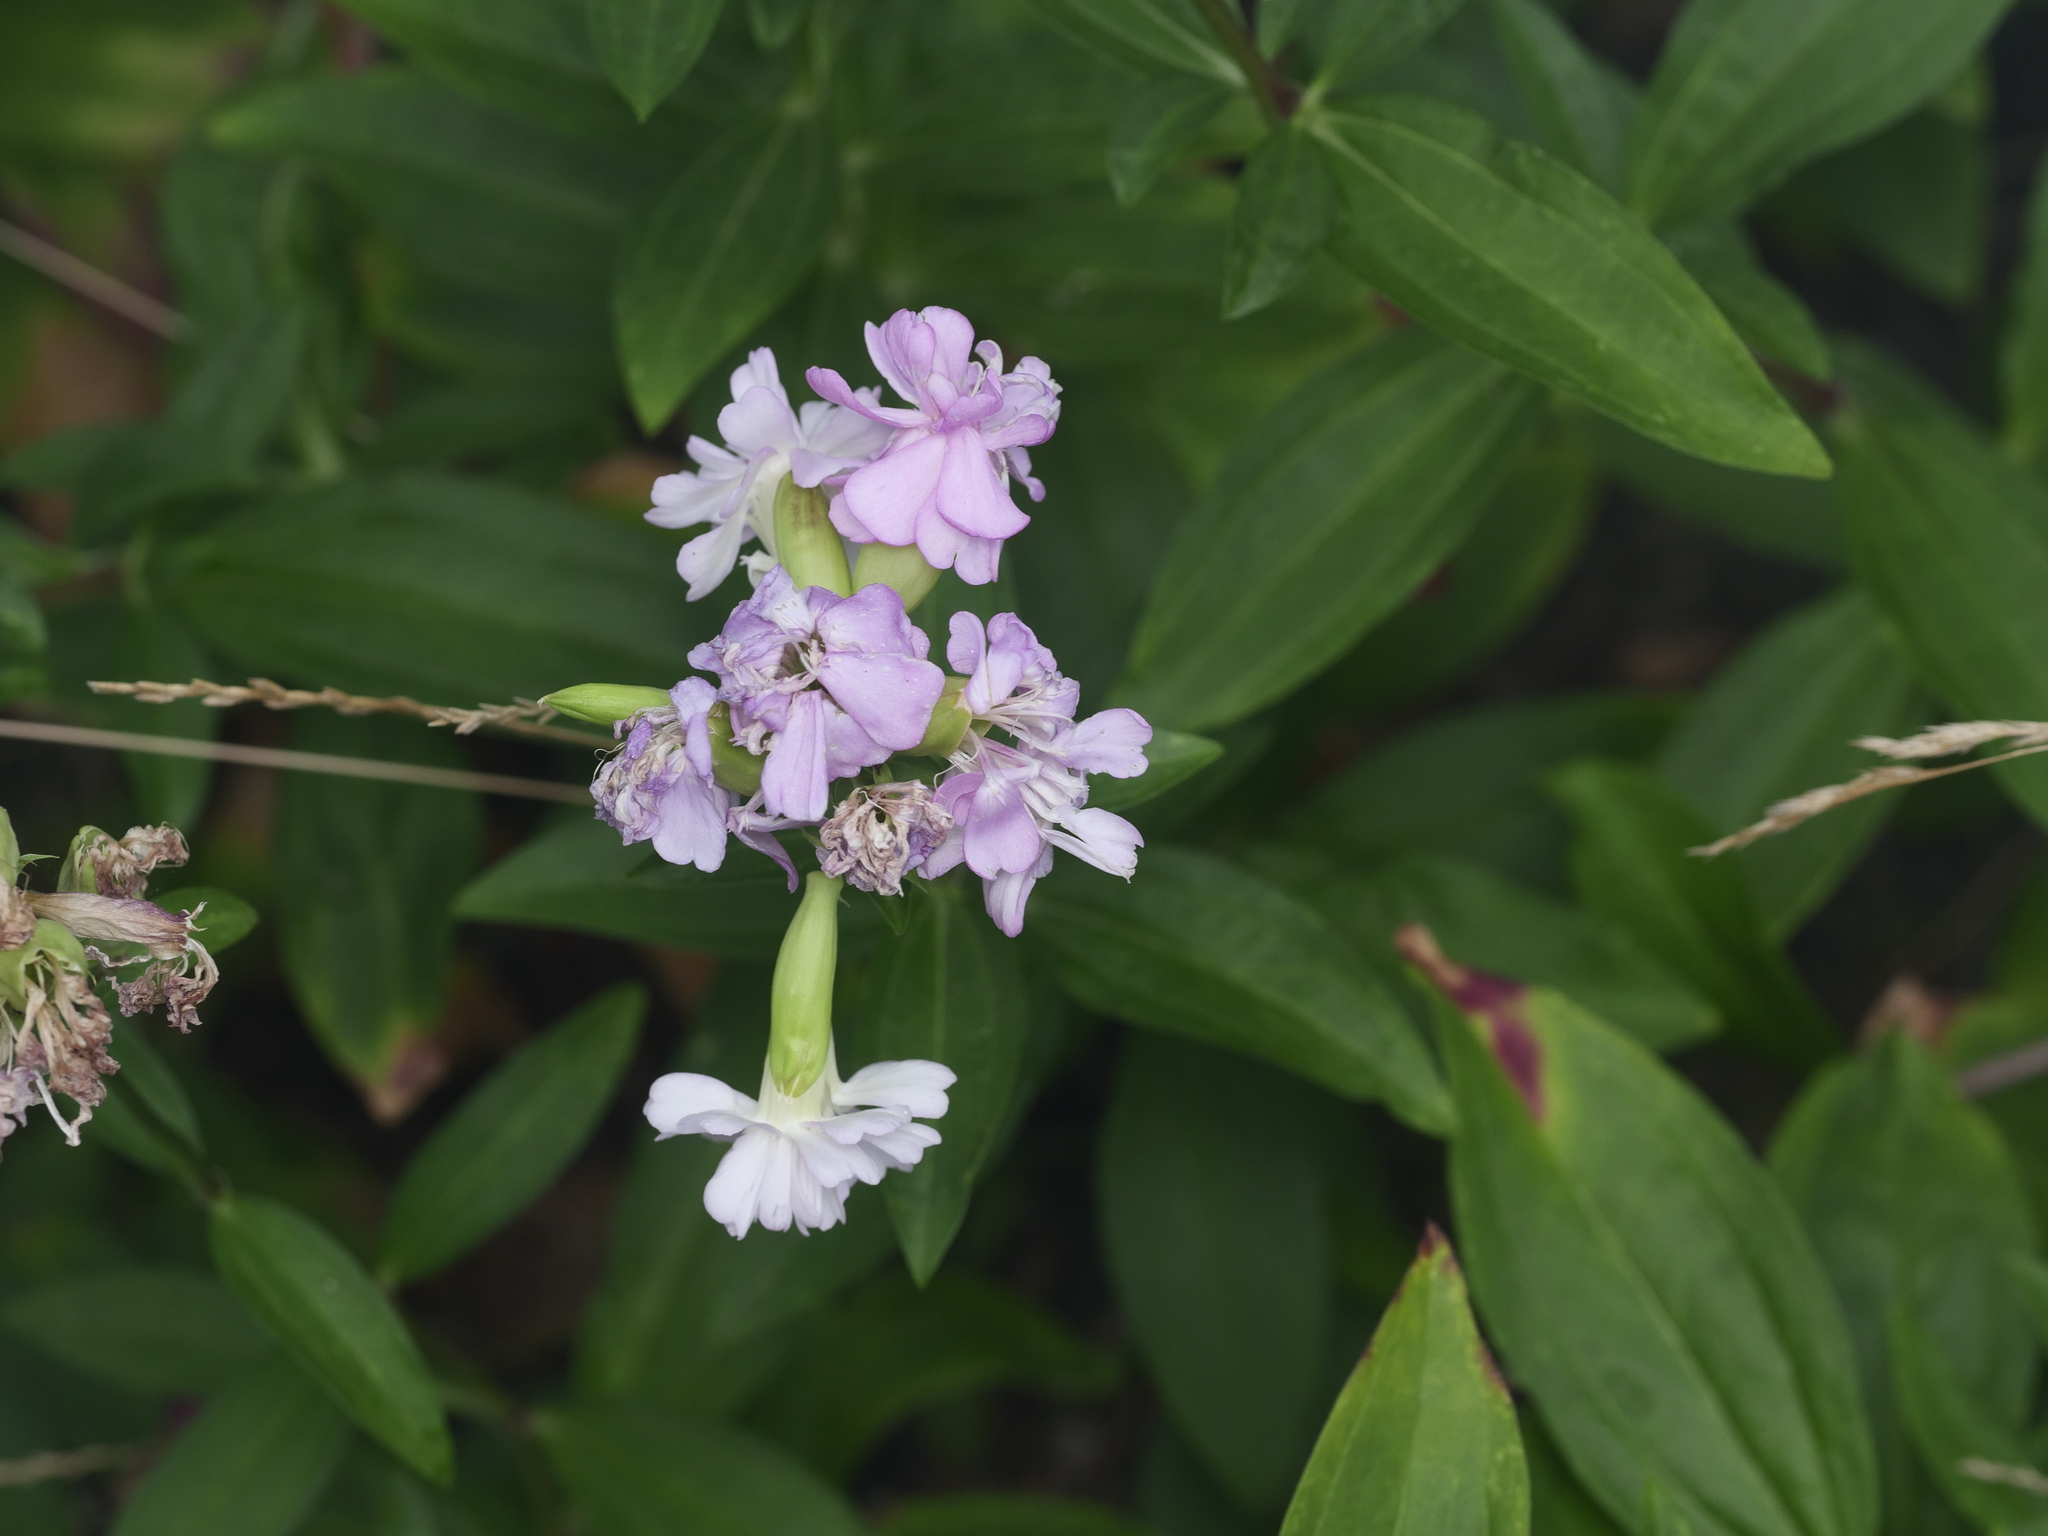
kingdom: Plantae
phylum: Tracheophyta
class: Magnoliopsida
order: Caryophyllales
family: Caryophyllaceae
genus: Saponaria
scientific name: Saponaria officinalis
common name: Soapwort
